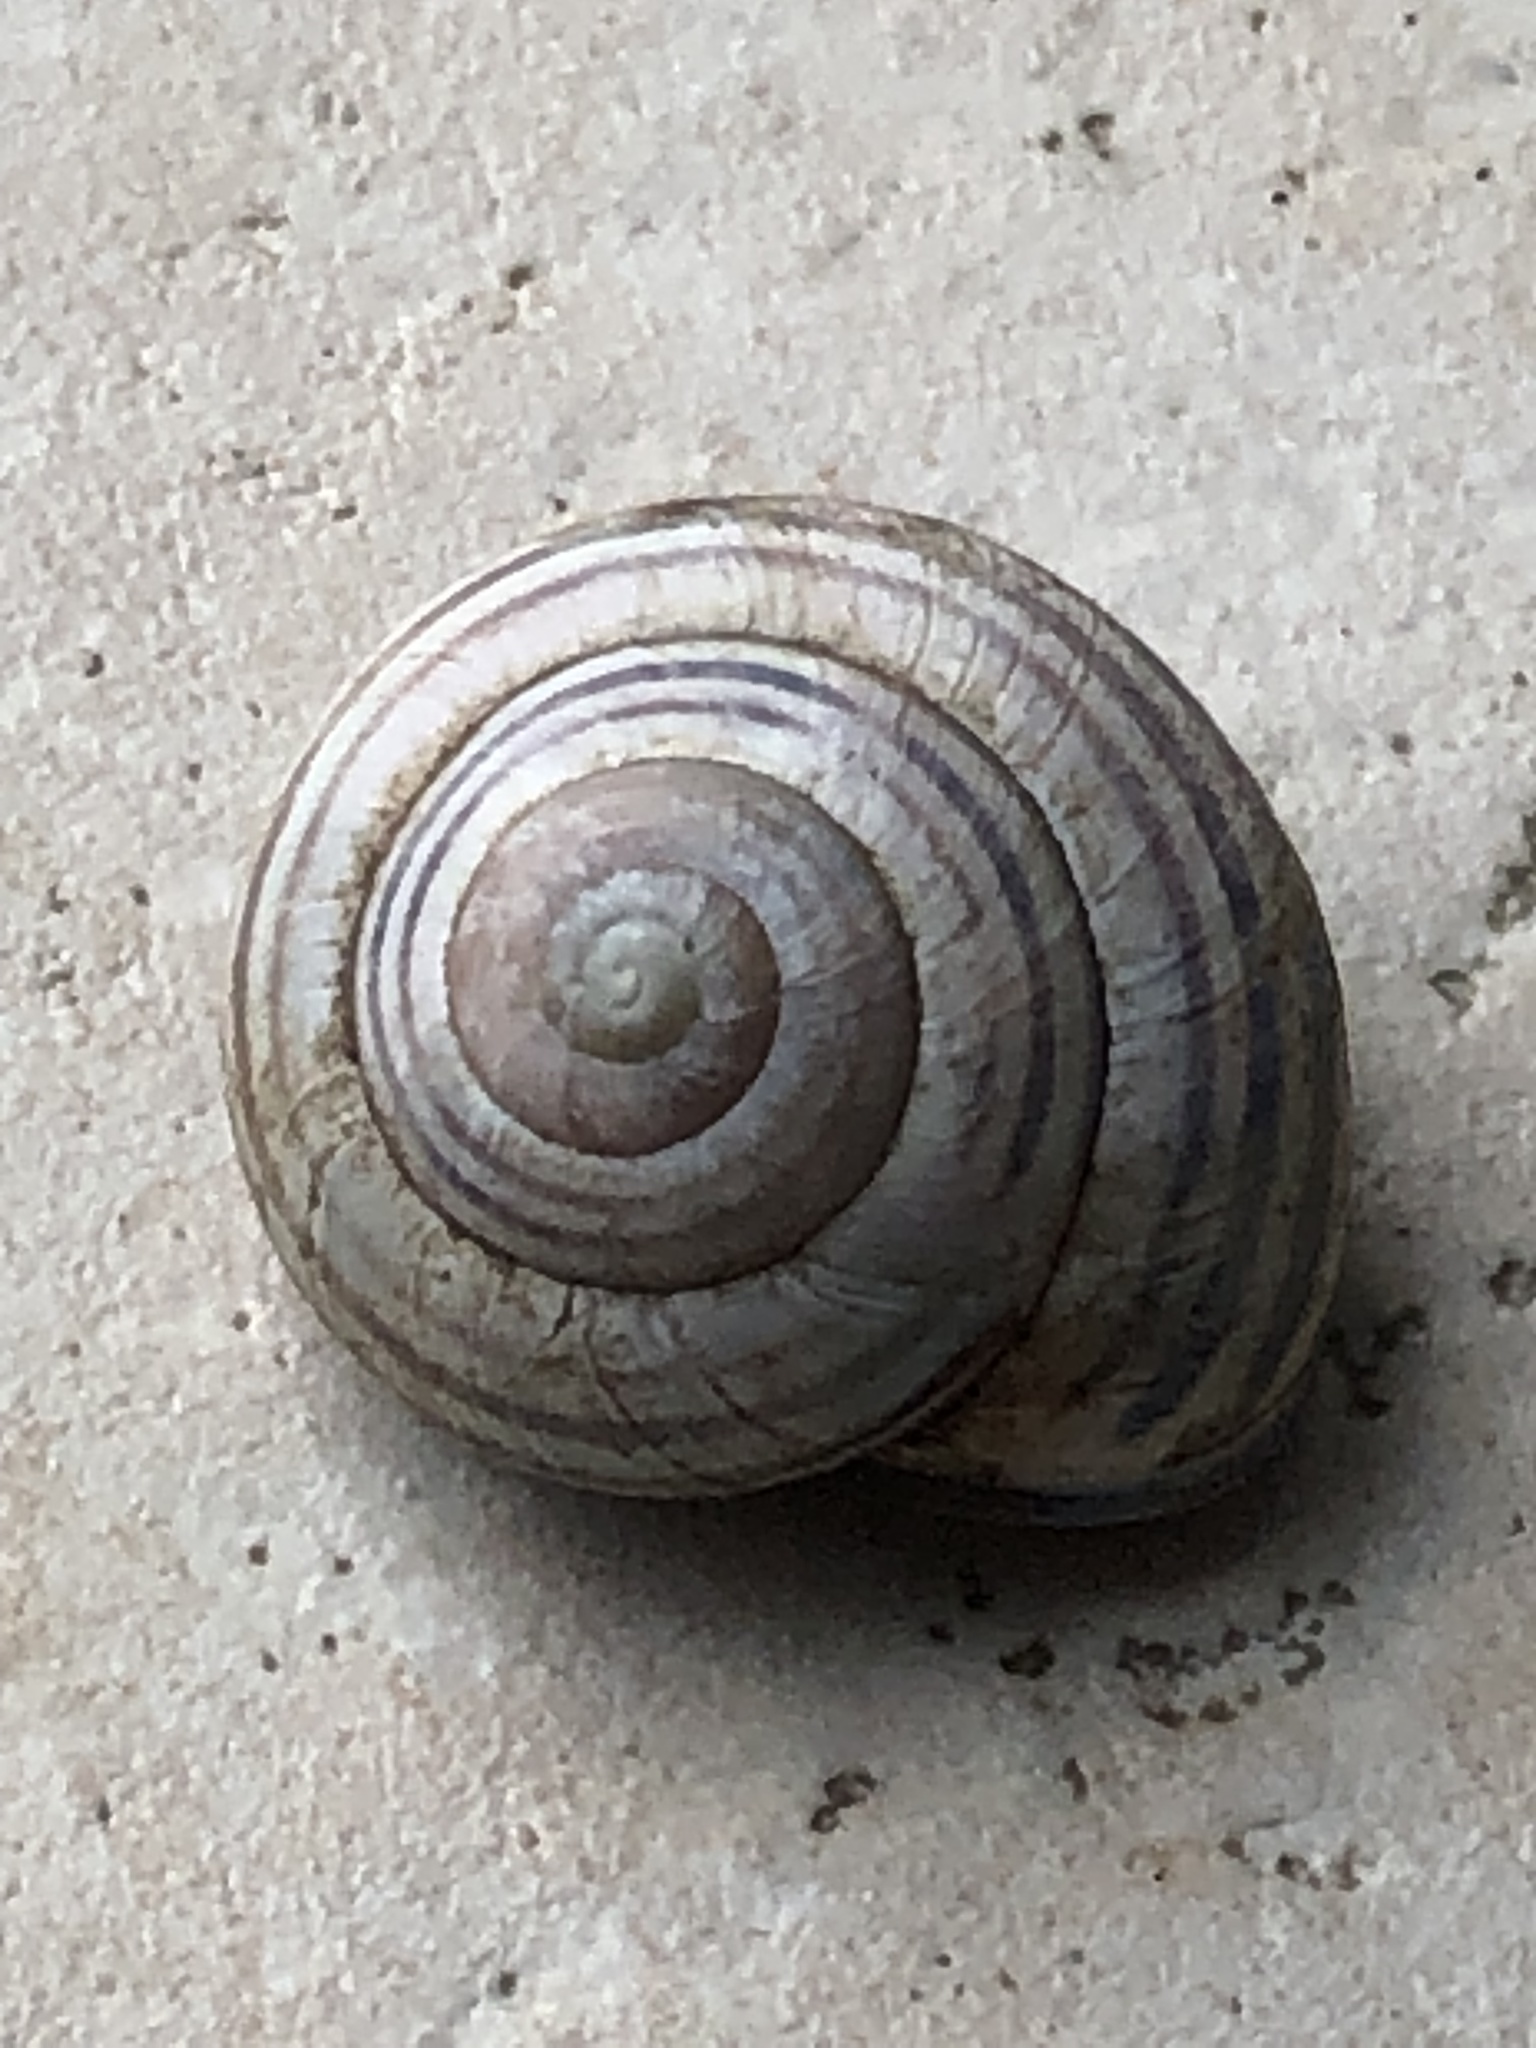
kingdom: Animalia
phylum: Mollusca
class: Gastropoda
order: Stylommatophora
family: Helicidae
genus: Cepaea
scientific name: Cepaea nemoralis
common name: Grovesnail
